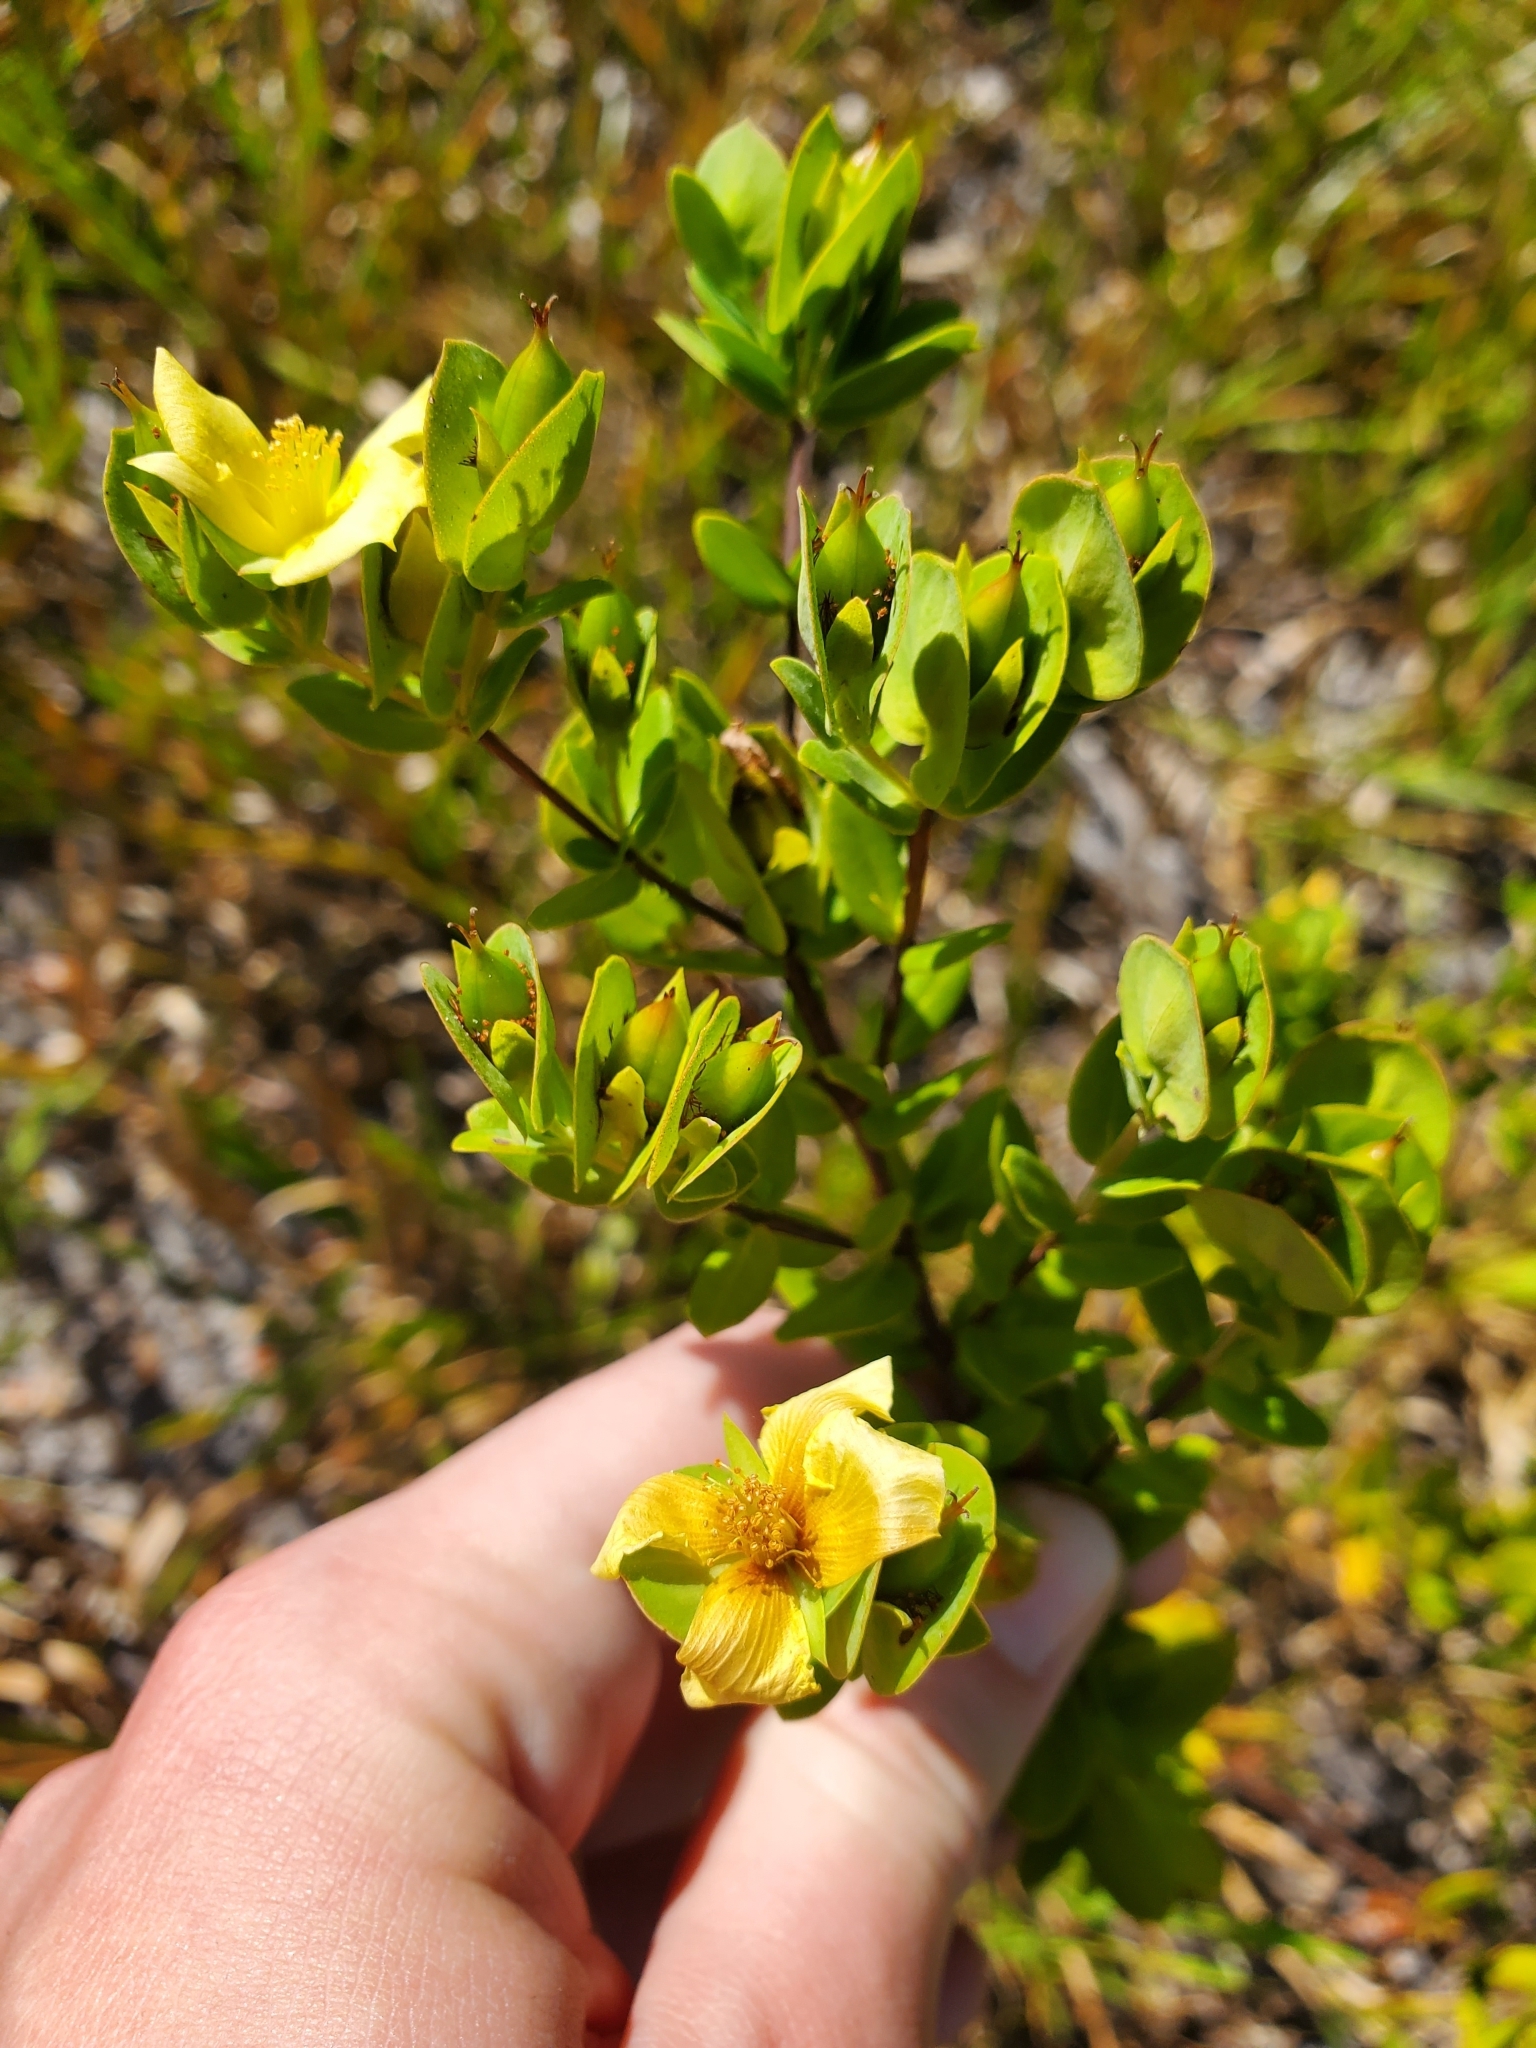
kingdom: Plantae
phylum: Tracheophyta
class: Magnoliopsida
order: Malpighiales
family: Hypericaceae
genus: Hypericum
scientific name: Hypericum crux-andreae
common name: St.-peter's-wort
